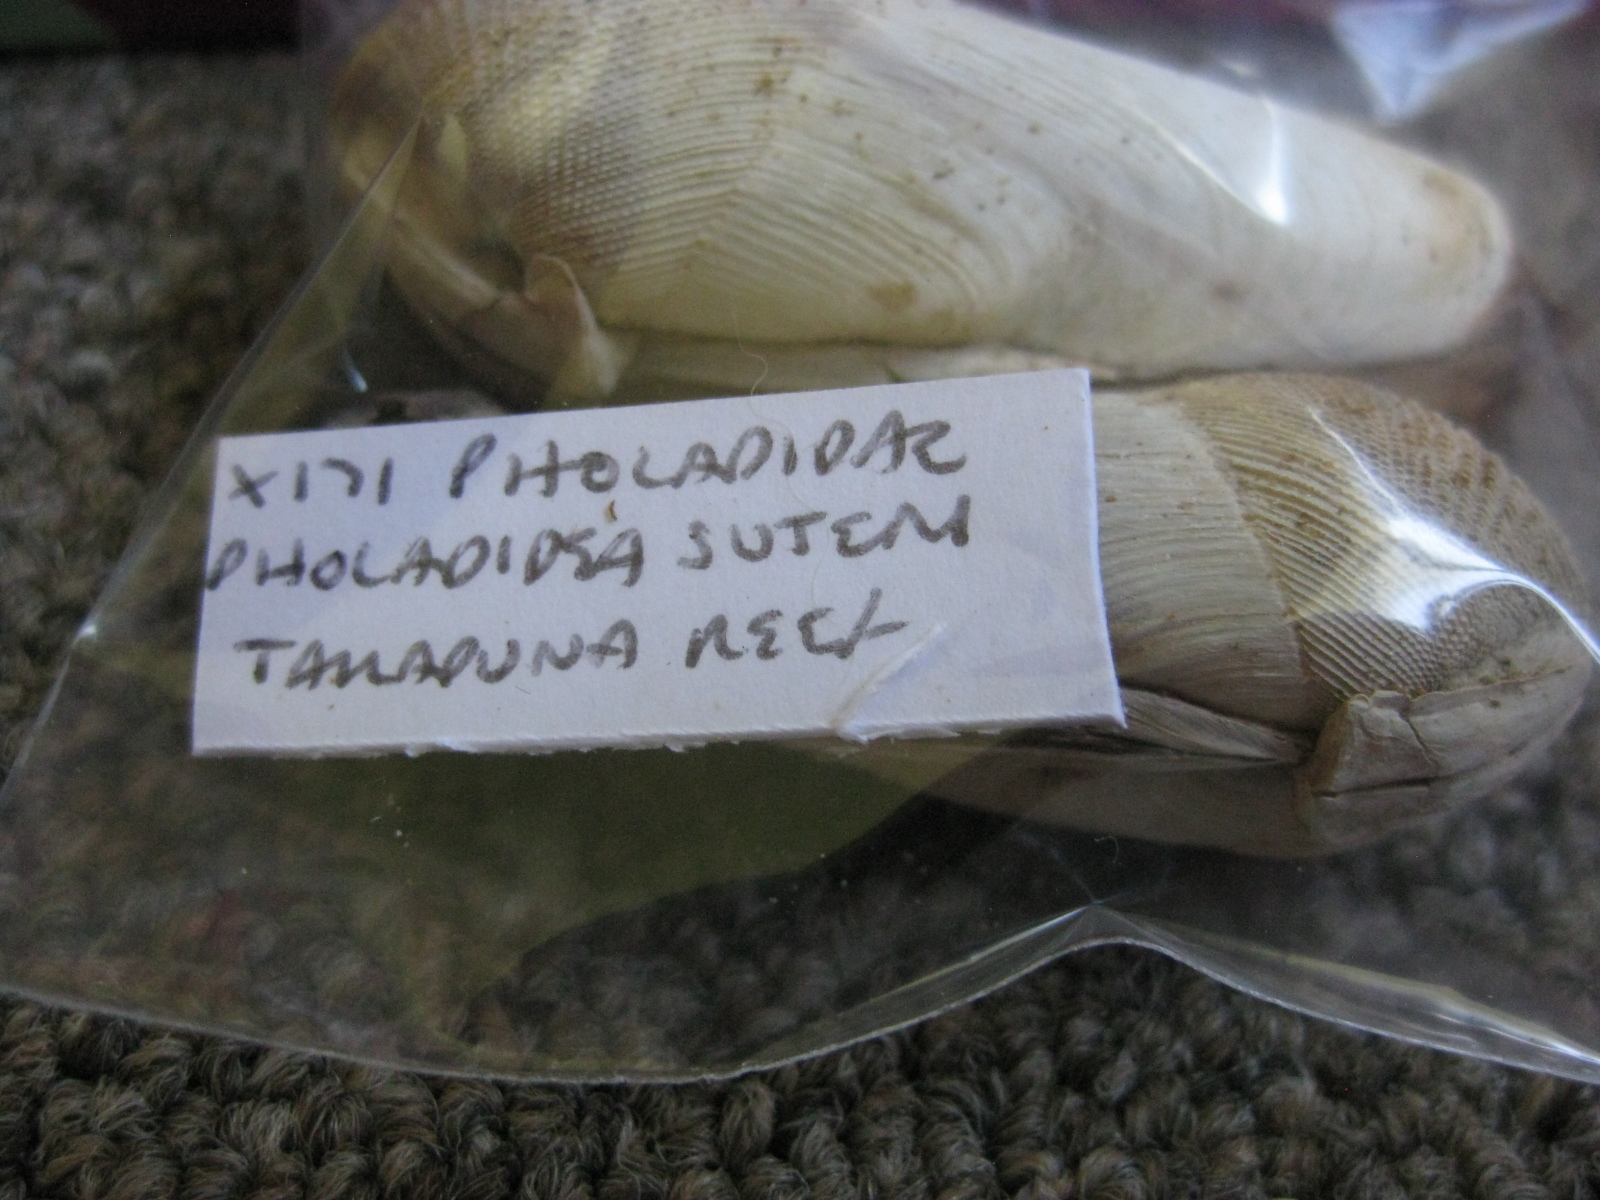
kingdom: Animalia
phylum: Mollusca
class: Bivalvia
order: Myida
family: Pholadidae
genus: Pholadidea
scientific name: Pholadidea suteri
